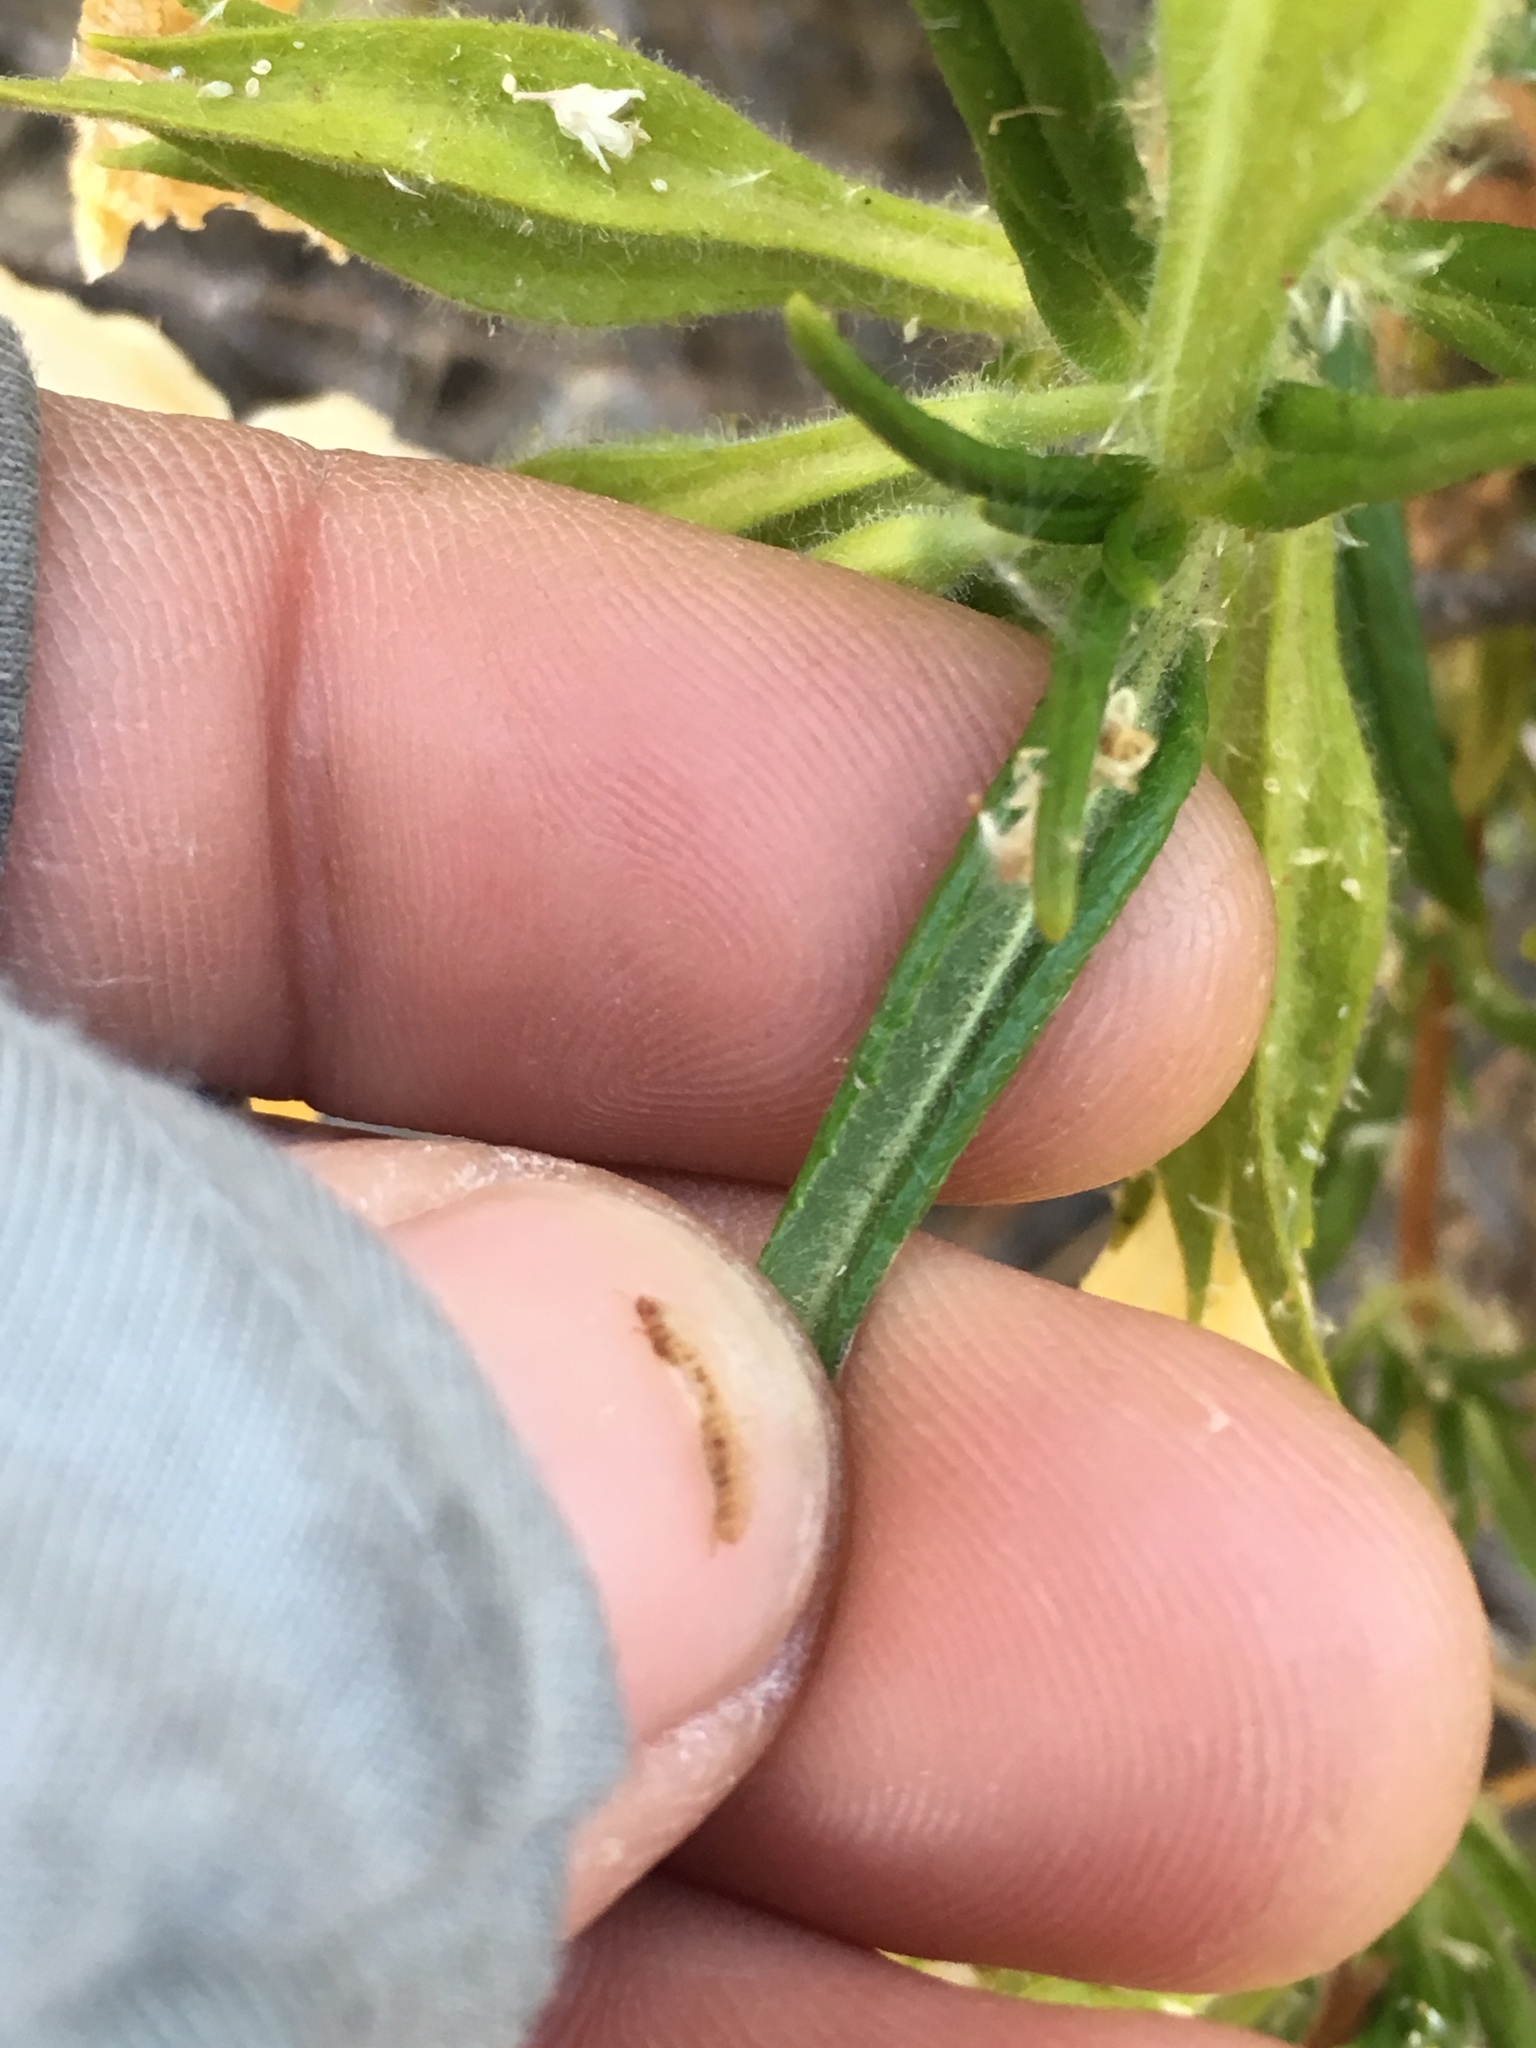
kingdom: Plantae
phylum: Tracheophyta
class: Magnoliopsida
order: Lamiales
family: Phrymaceae
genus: Diplacus
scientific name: Diplacus longiflorus
